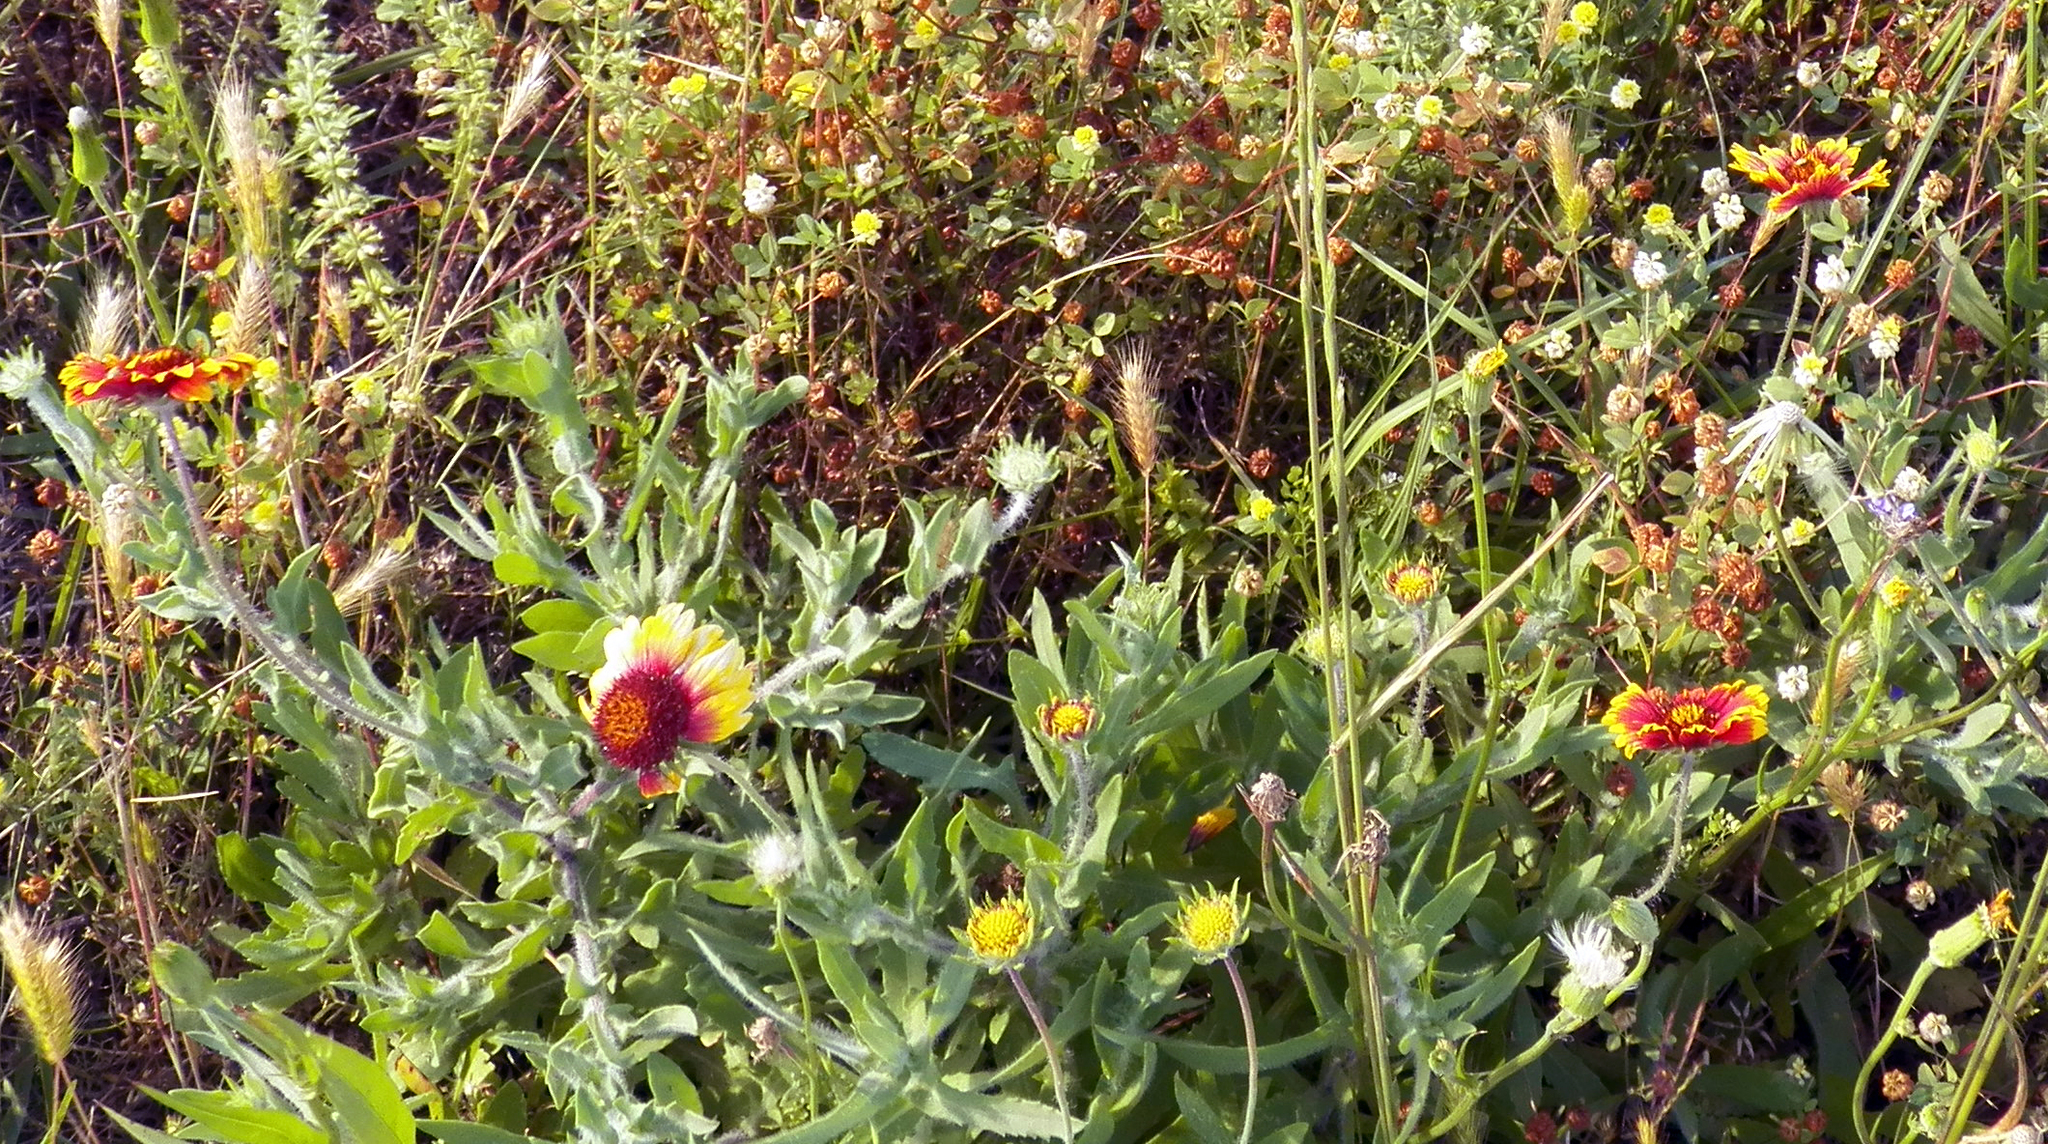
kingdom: Plantae
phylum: Tracheophyta
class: Magnoliopsida
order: Asterales
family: Asteraceae
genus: Gaillardia
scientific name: Gaillardia pulchella
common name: Firewheel
